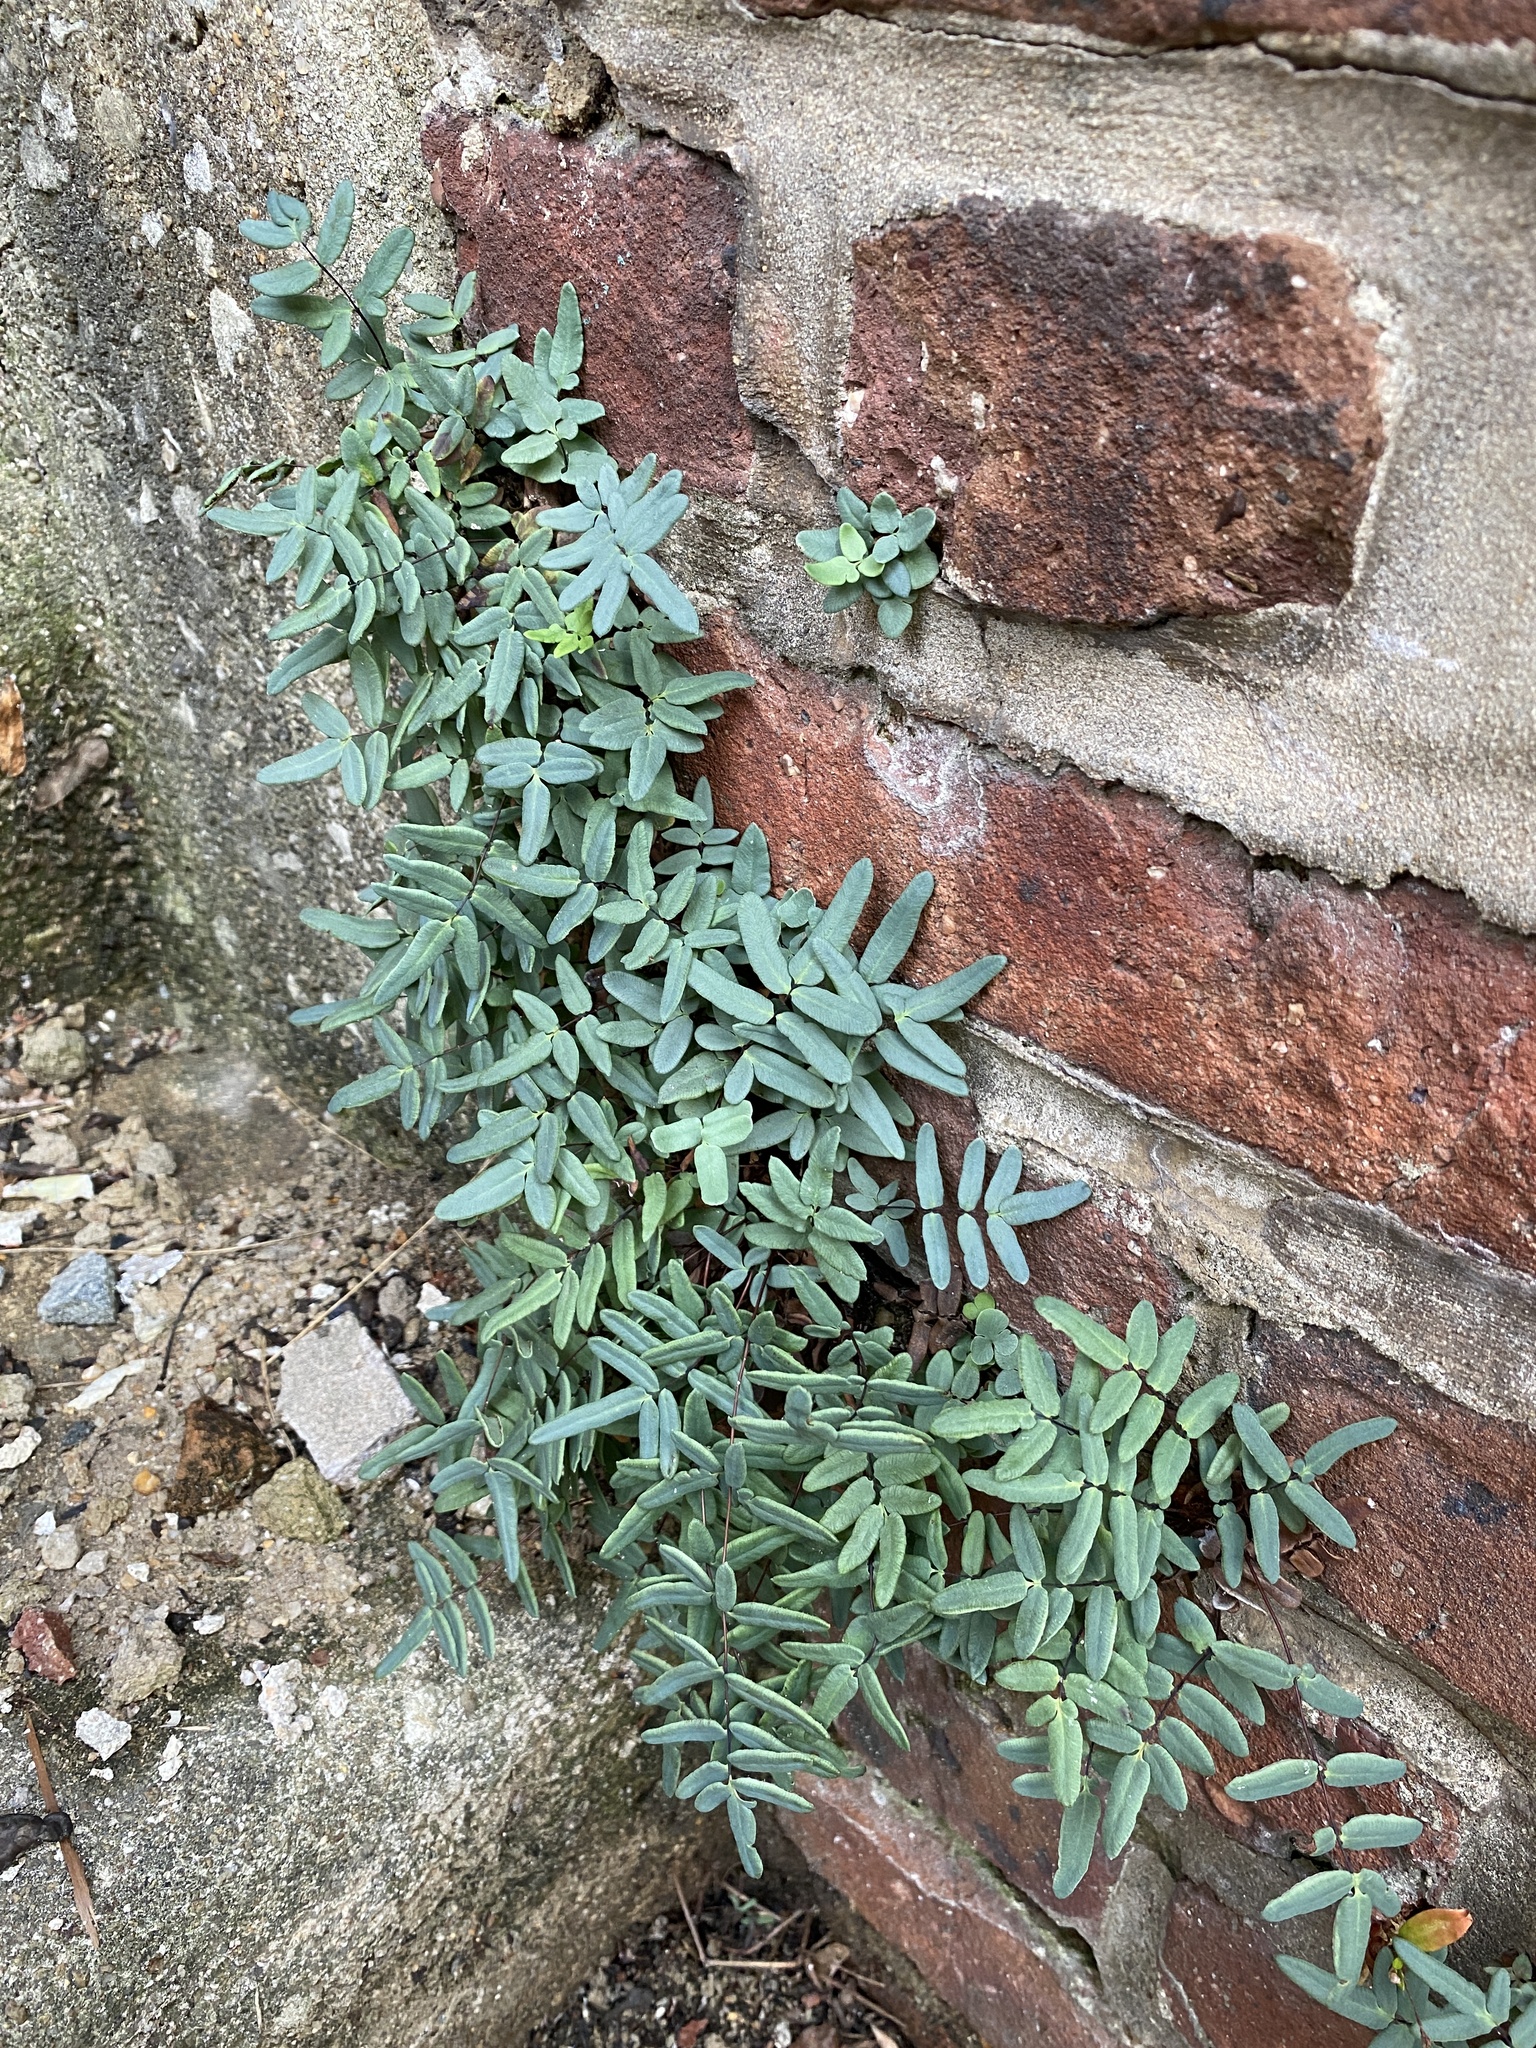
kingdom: Plantae
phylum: Tracheophyta
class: Polypodiopsida
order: Polypodiales
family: Pteridaceae
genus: Pellaea
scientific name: Pellaea glabella
